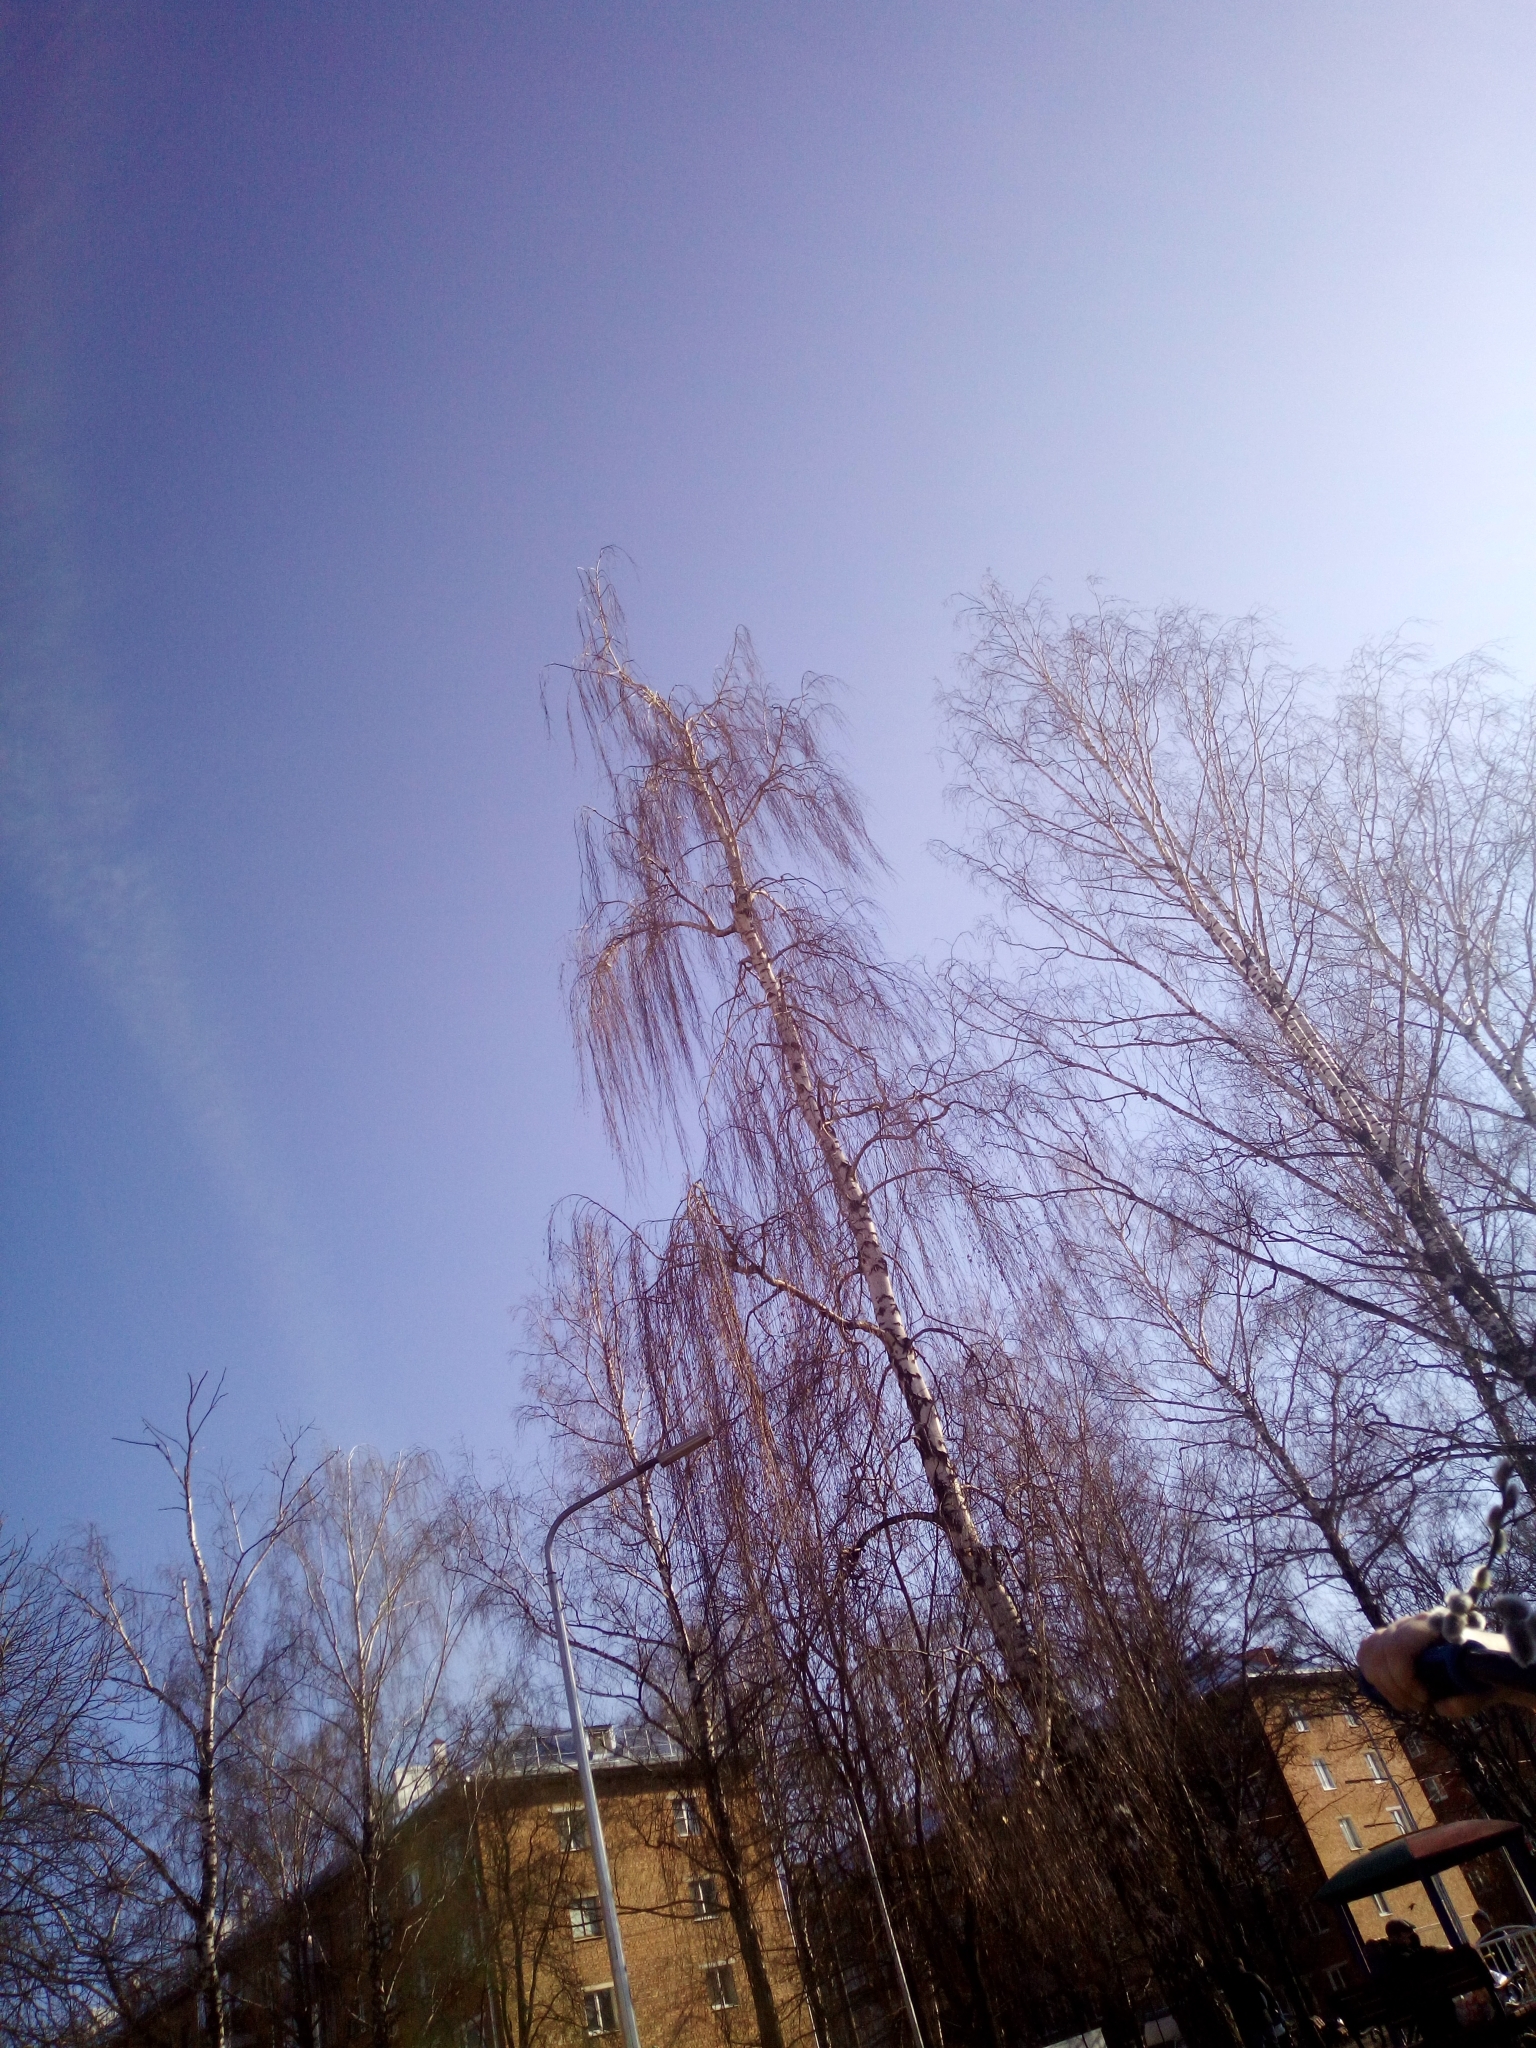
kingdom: Plantae
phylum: Tracheophyta
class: Magnoliopsida
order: Fagales
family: Betulaceae
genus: Betula
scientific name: Betula pendula
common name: Silver birch
